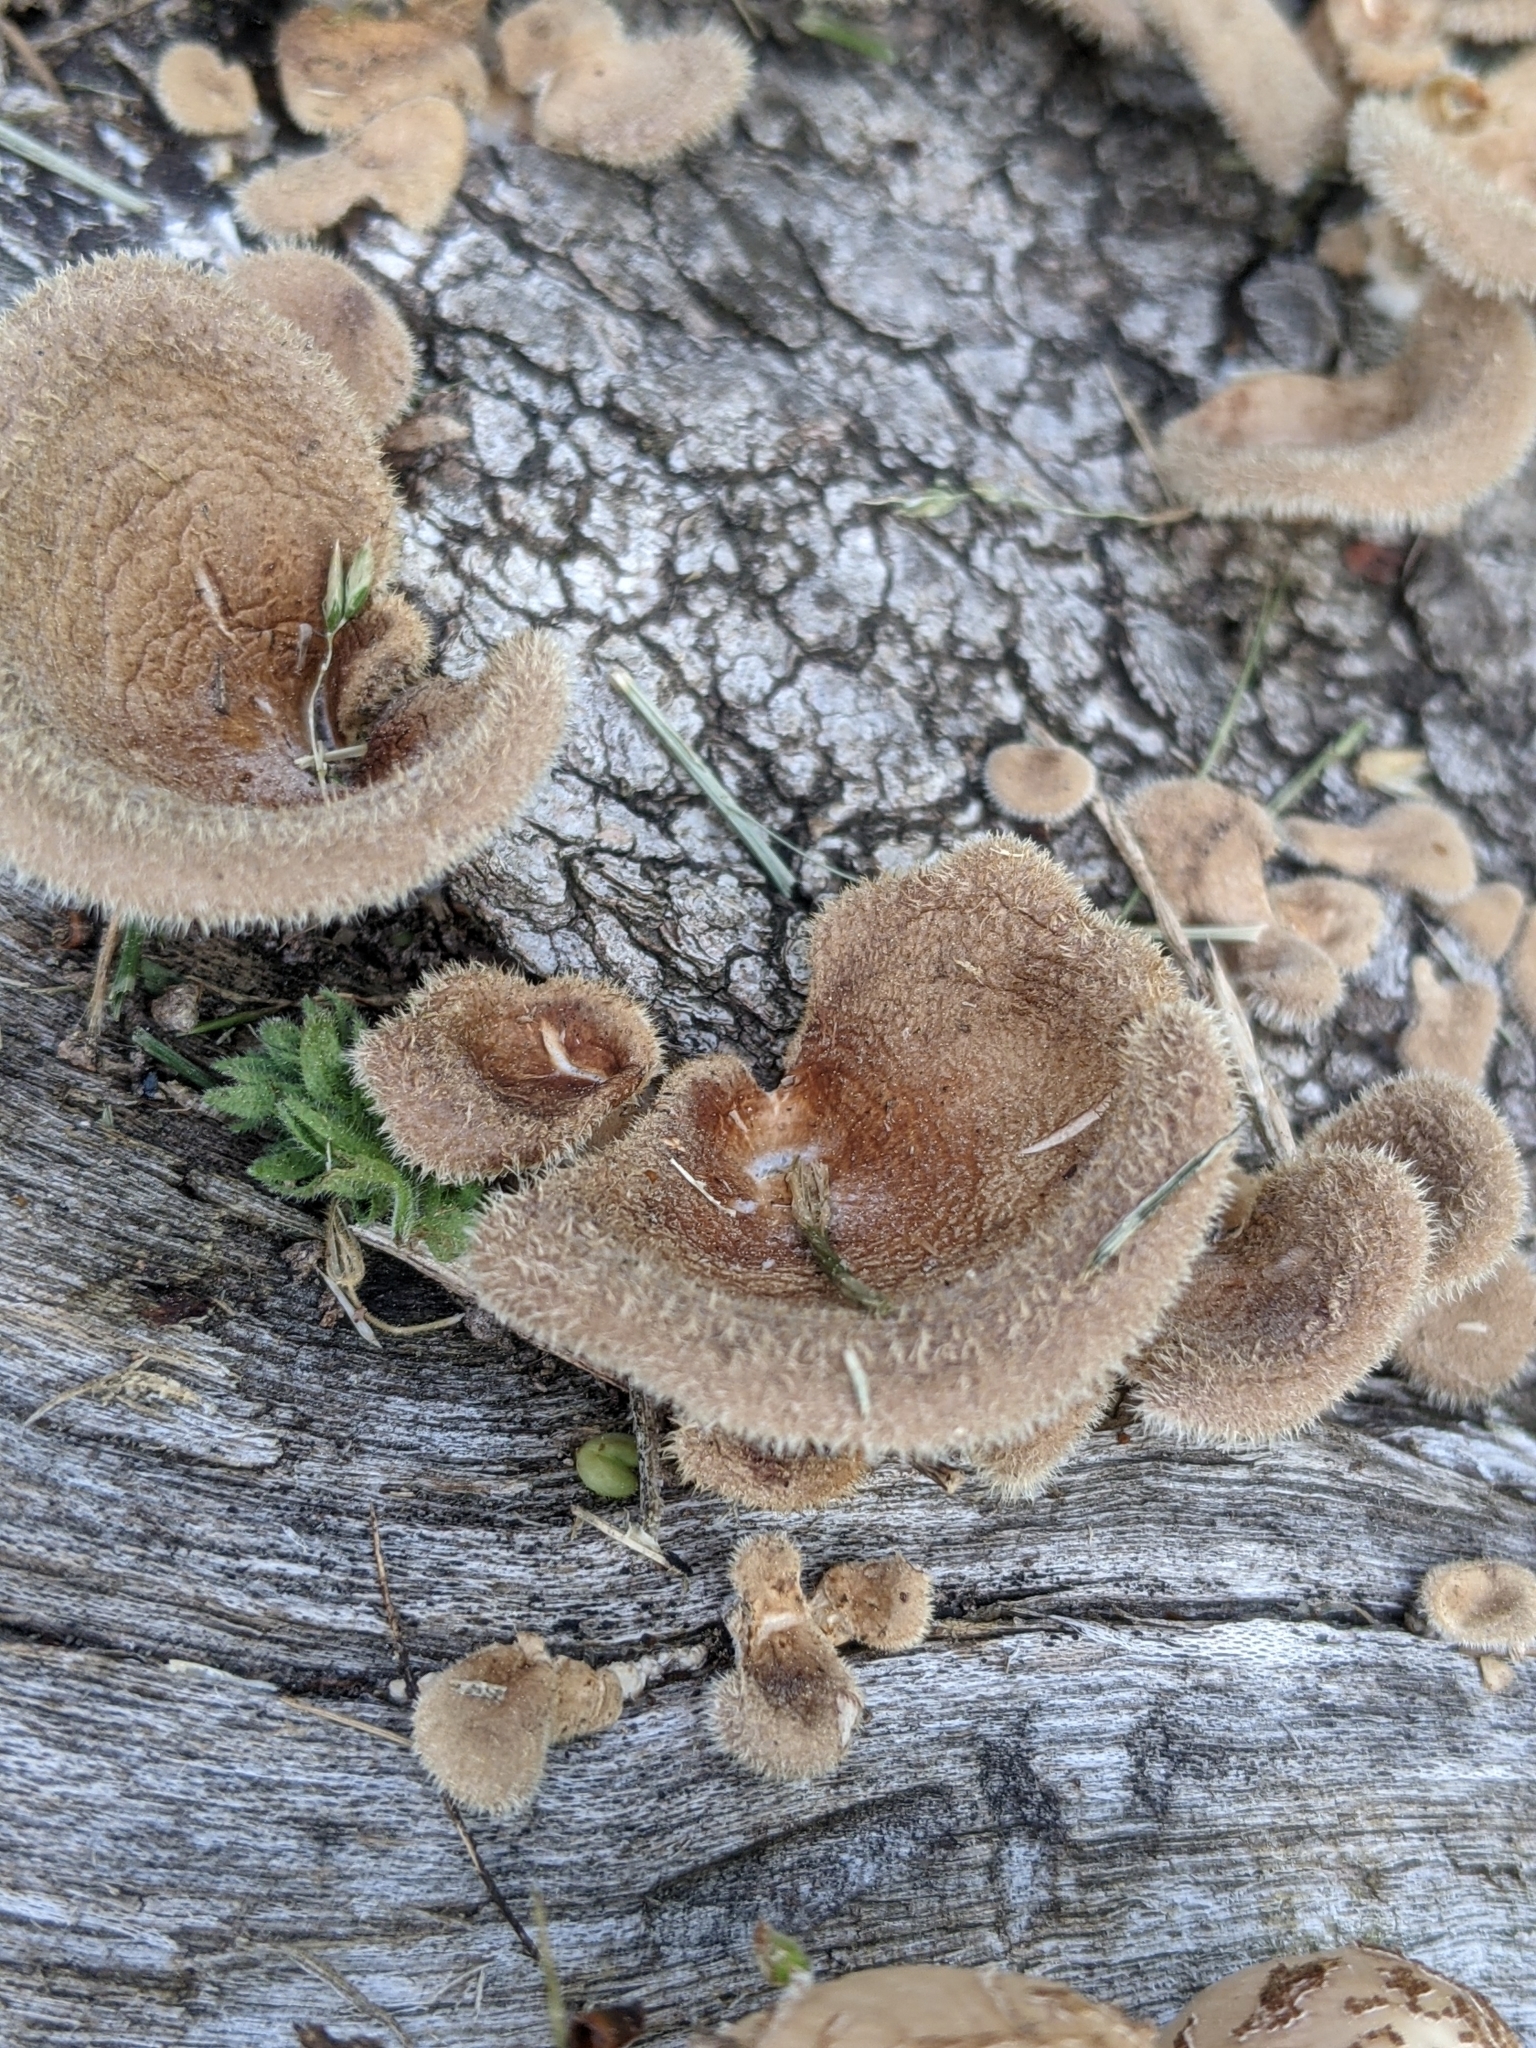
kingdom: Fungi
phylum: Basidiomycota
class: Agaricomycetes
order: Polyporales
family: Panaceae
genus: Panus
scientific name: Panus neostrigosus
